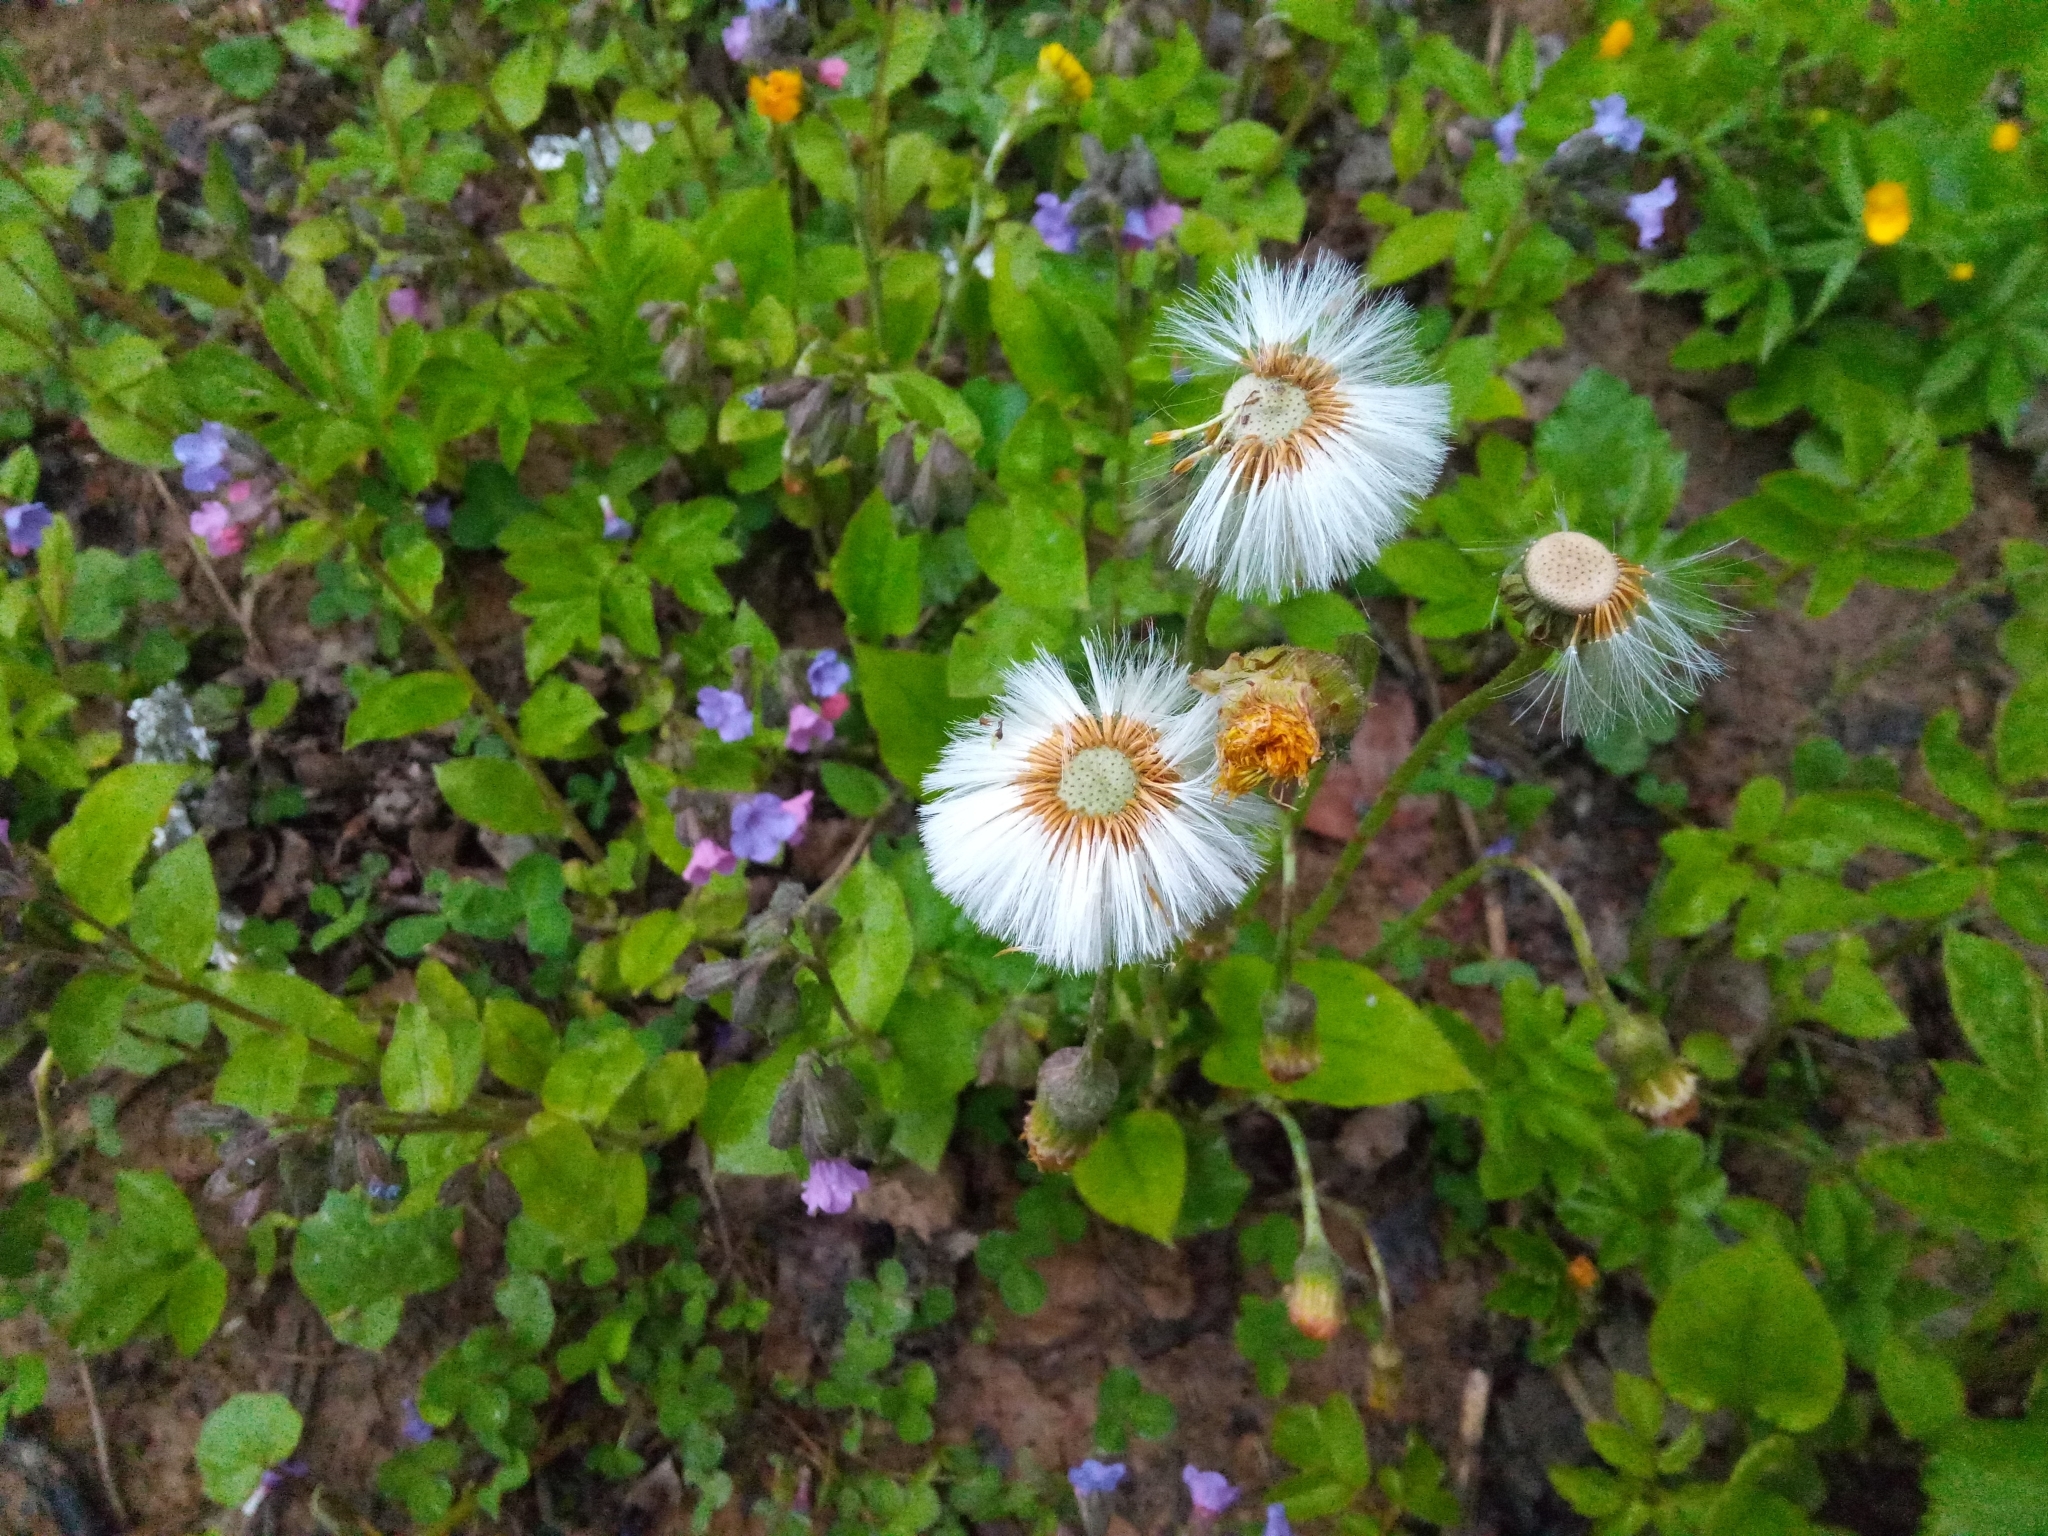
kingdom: Plantae
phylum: Tracheophyta
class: Magnoliopsida
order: Asterales
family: Asteraceae
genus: Tussilago
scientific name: Tussilago farfara
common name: Coltsfoot
